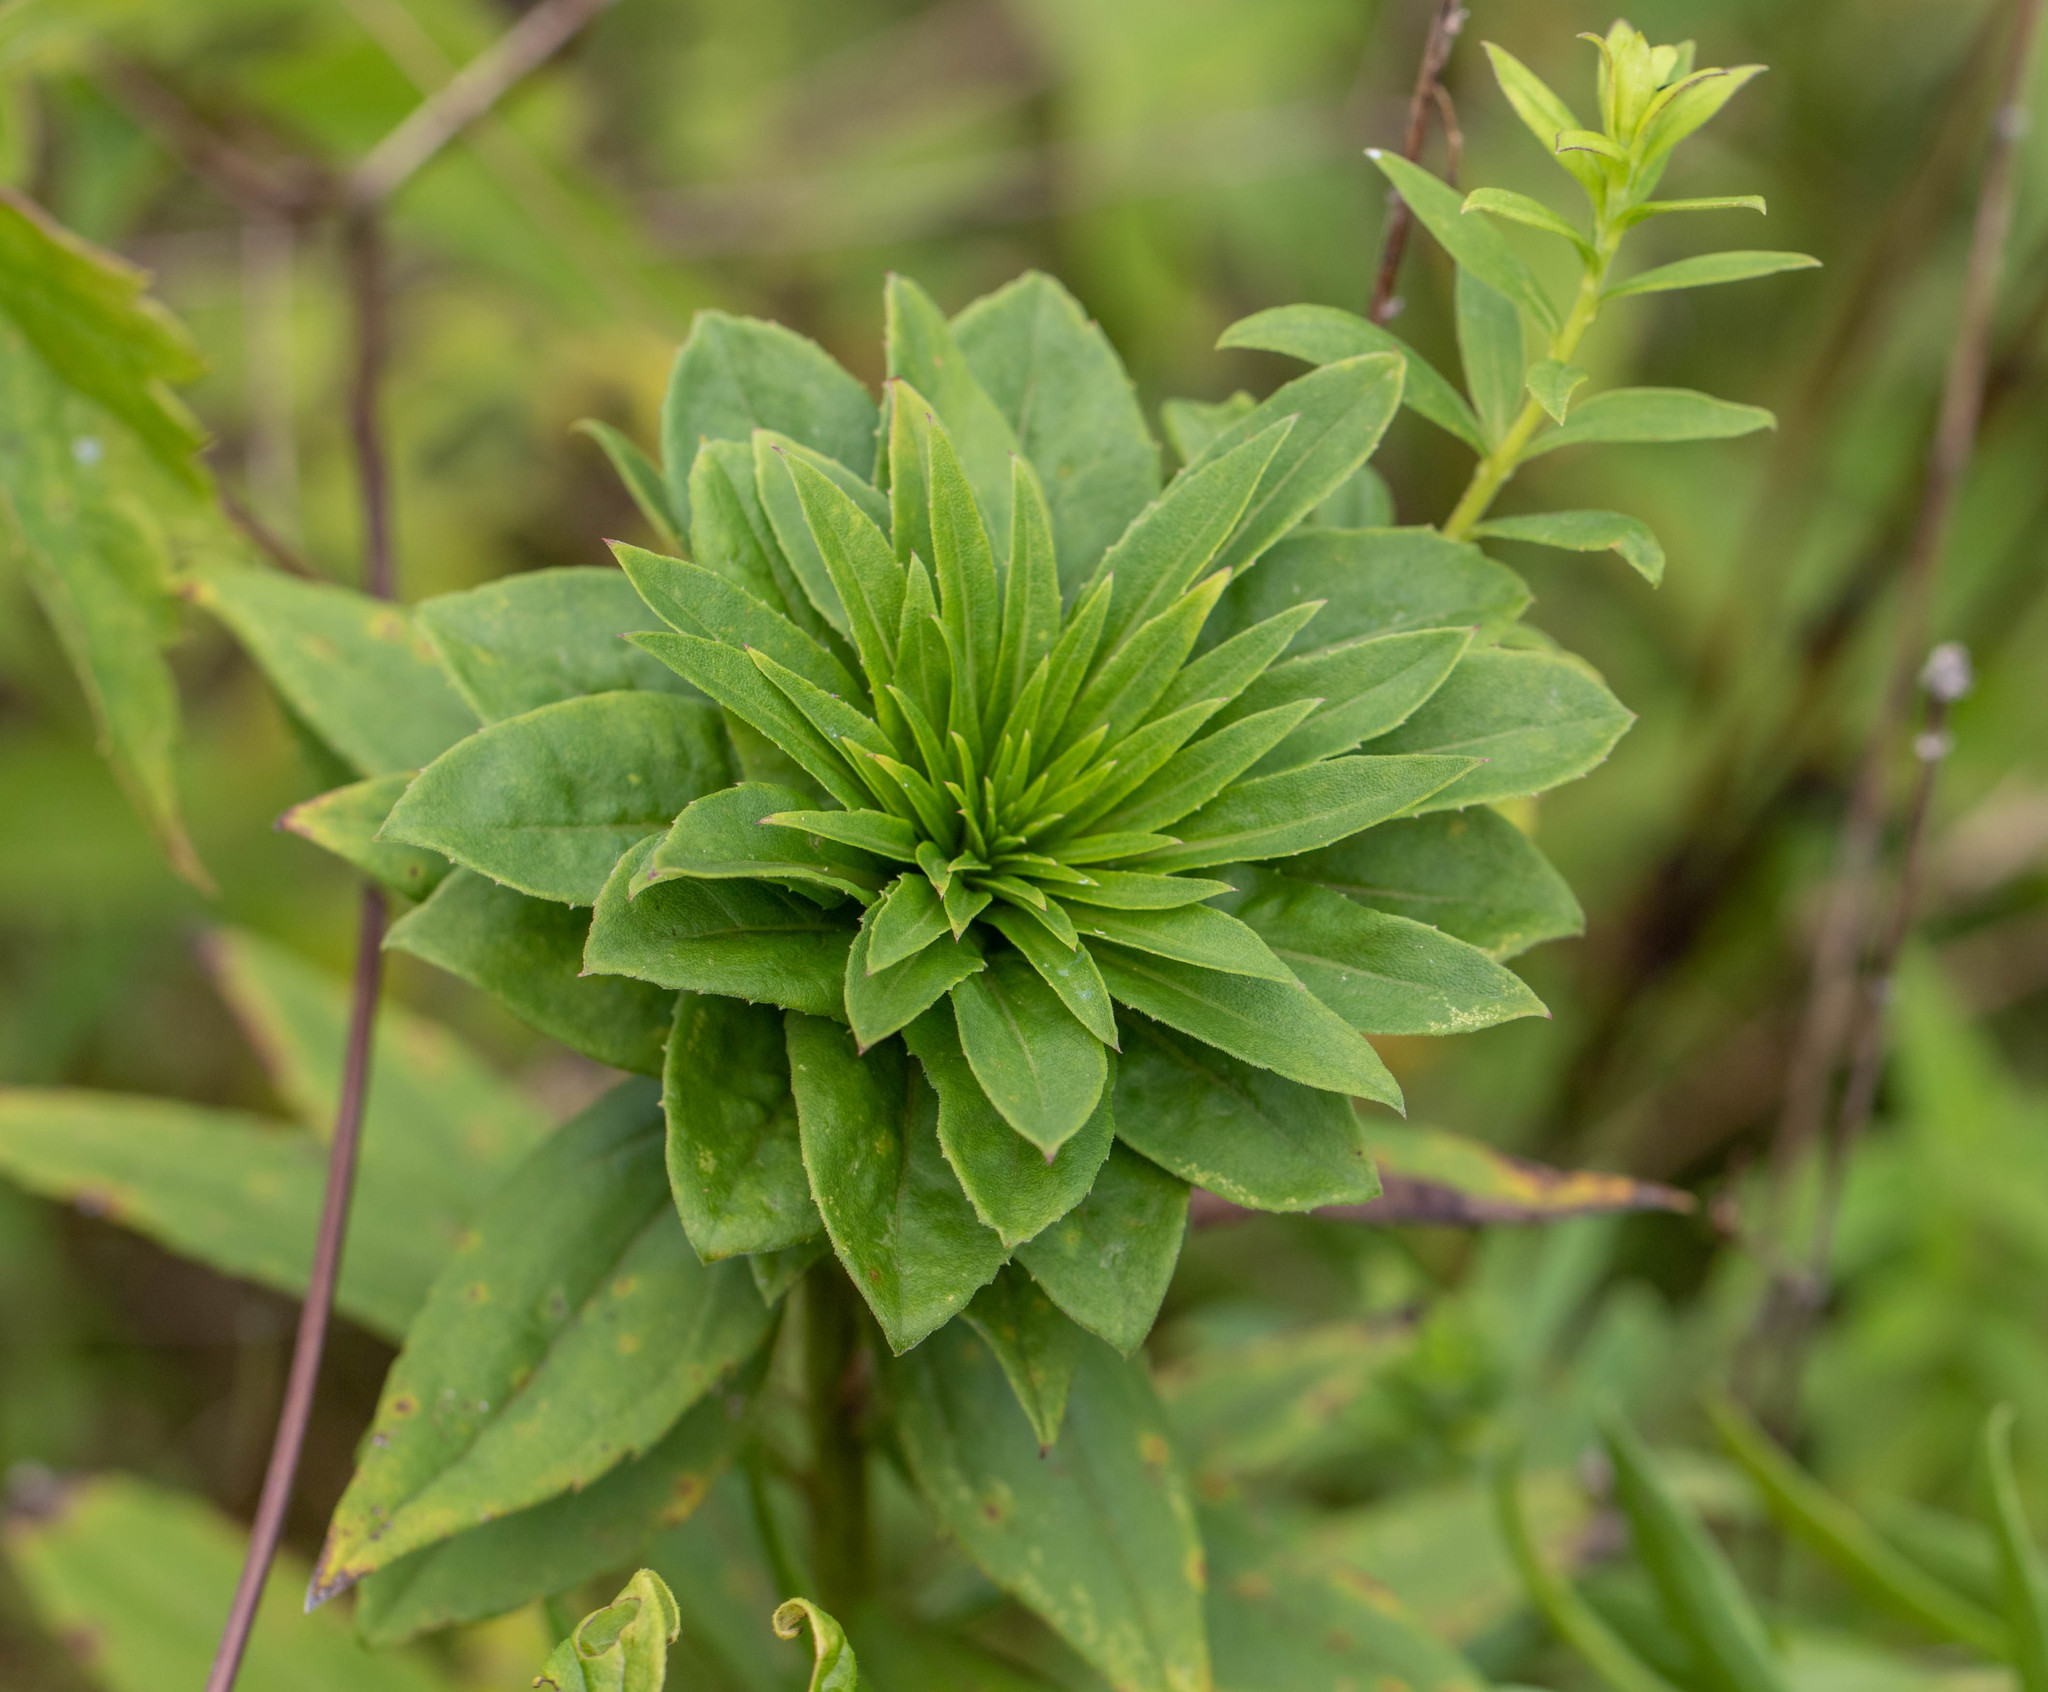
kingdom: Animalia
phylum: Arthropoda
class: Insecta
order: Diptera
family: Cecidomyiidae
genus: Rhopalomyia
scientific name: Rhopalomyia solidaginis
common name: Goldenrod bunch gall midge
